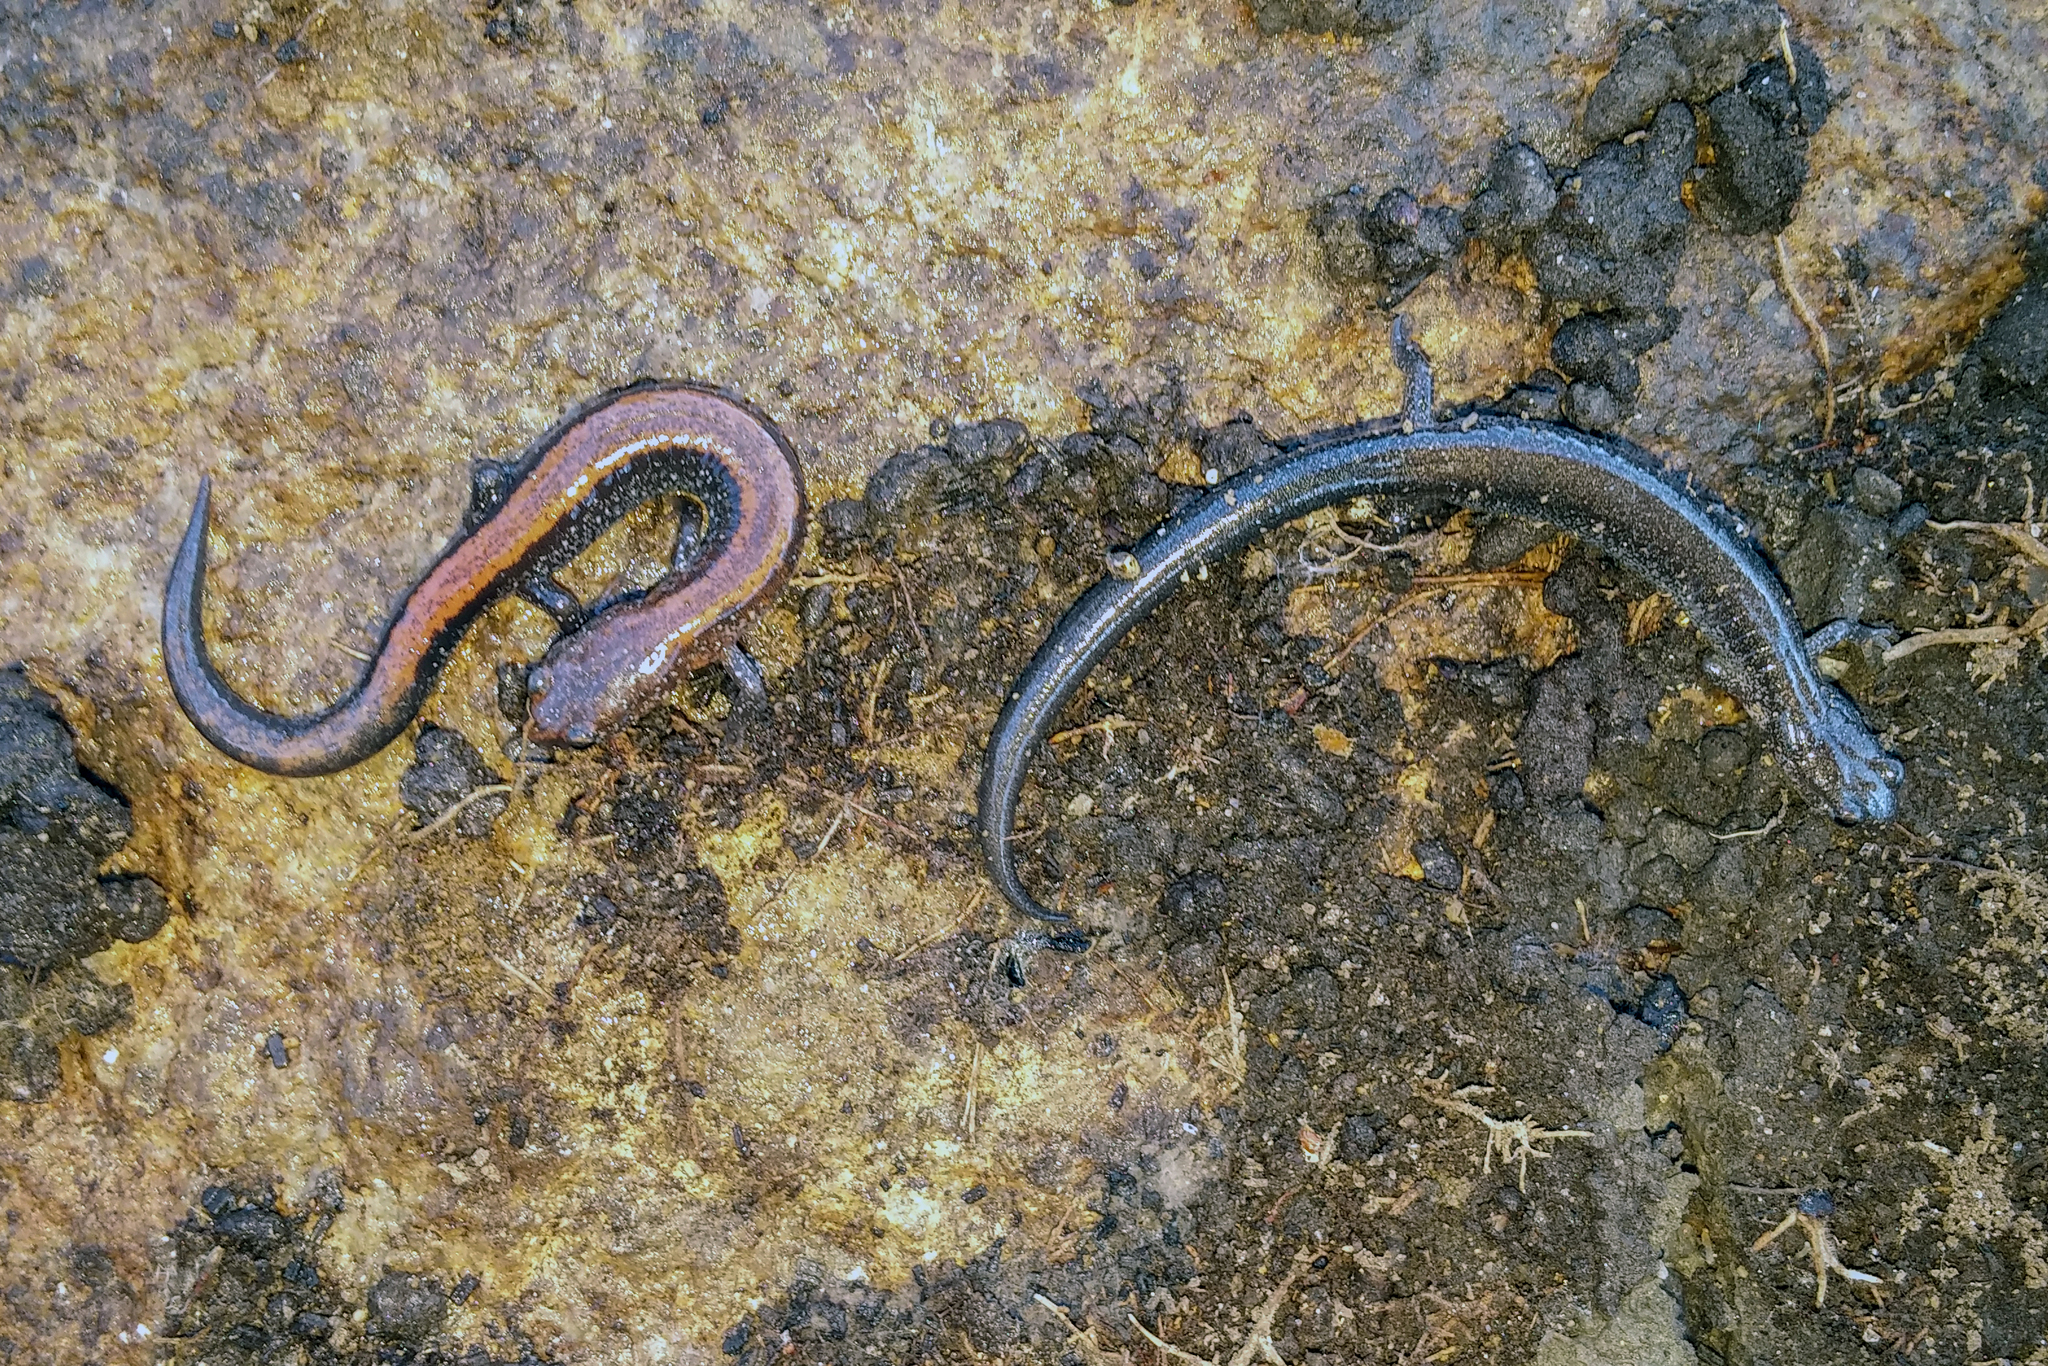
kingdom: Animalia
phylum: Chordata
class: Amphibia
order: Caudata
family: Plethodontidae
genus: Plethodon
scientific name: Plethodon cinereus
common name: Redback salamander
